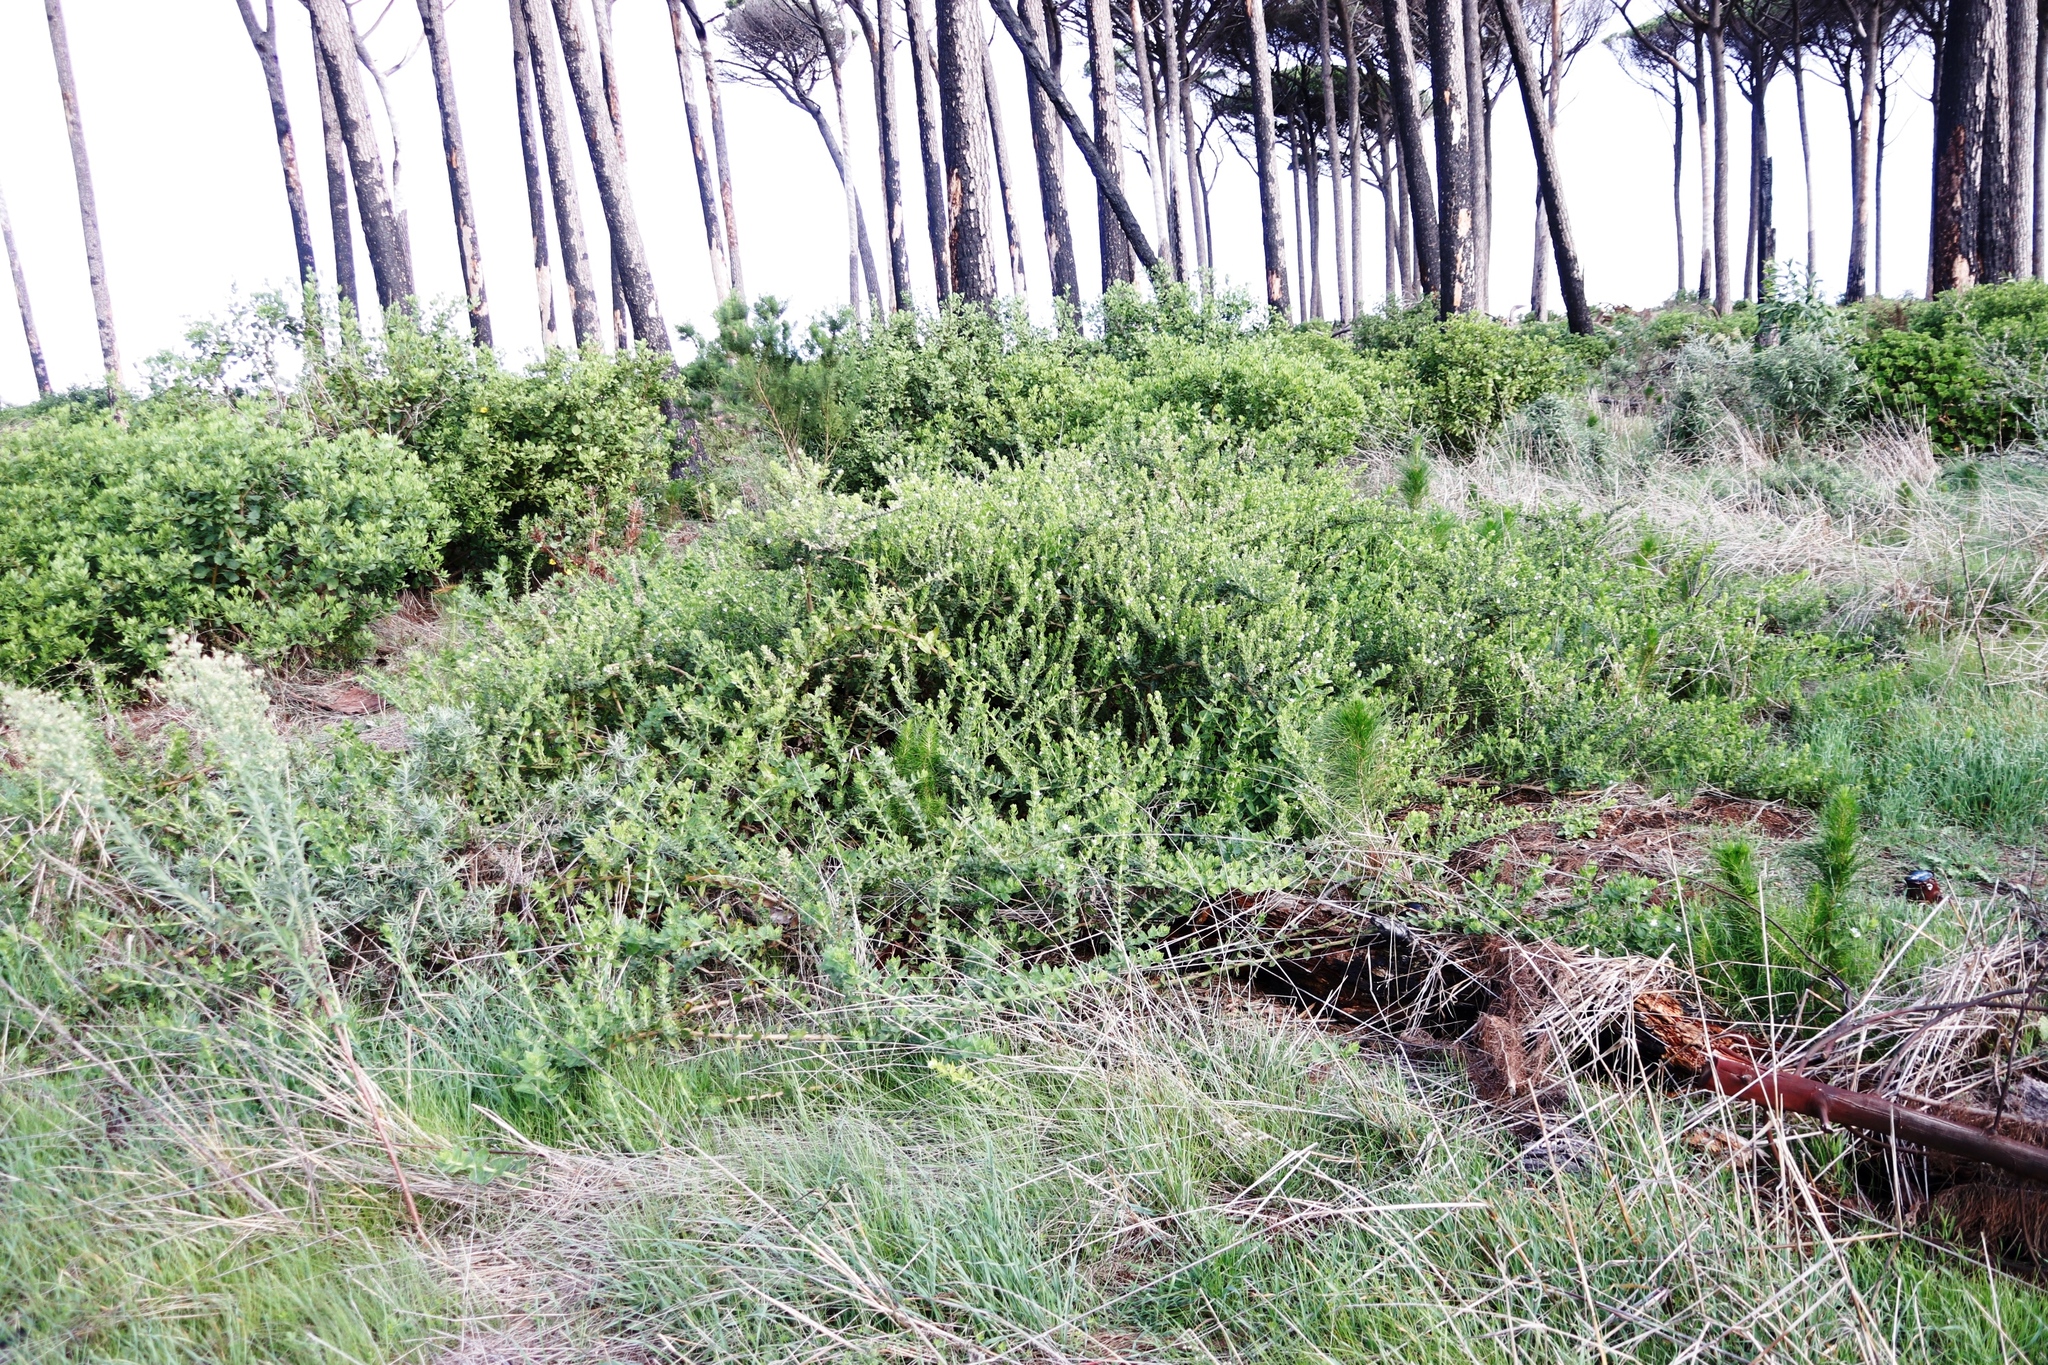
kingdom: Plantae
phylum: Tracheophyta
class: Magnoliopsida
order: Lamiales
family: Scrophulariaceae
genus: Oftia
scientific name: Oftia africana
